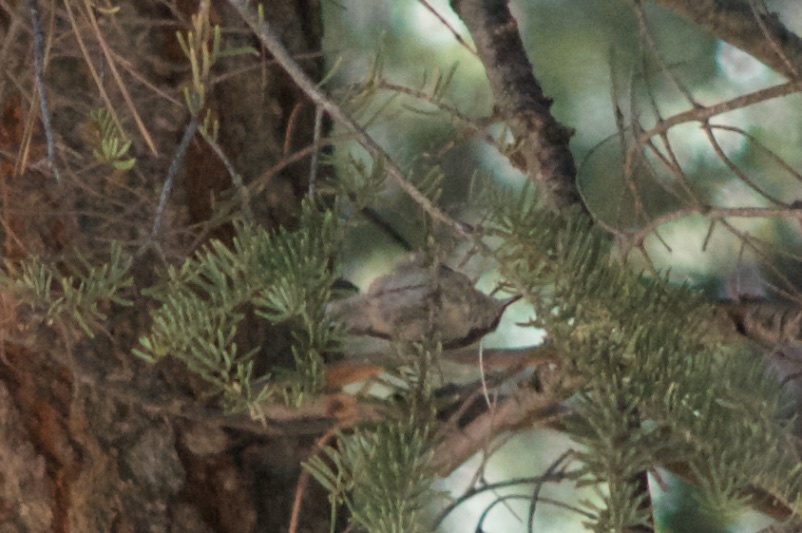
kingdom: Animalia
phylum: Chordata
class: Aves
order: Passeriformes
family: Sittidae
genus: Sitta
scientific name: Sitta pygmaea
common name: Pygmy nuthatch
